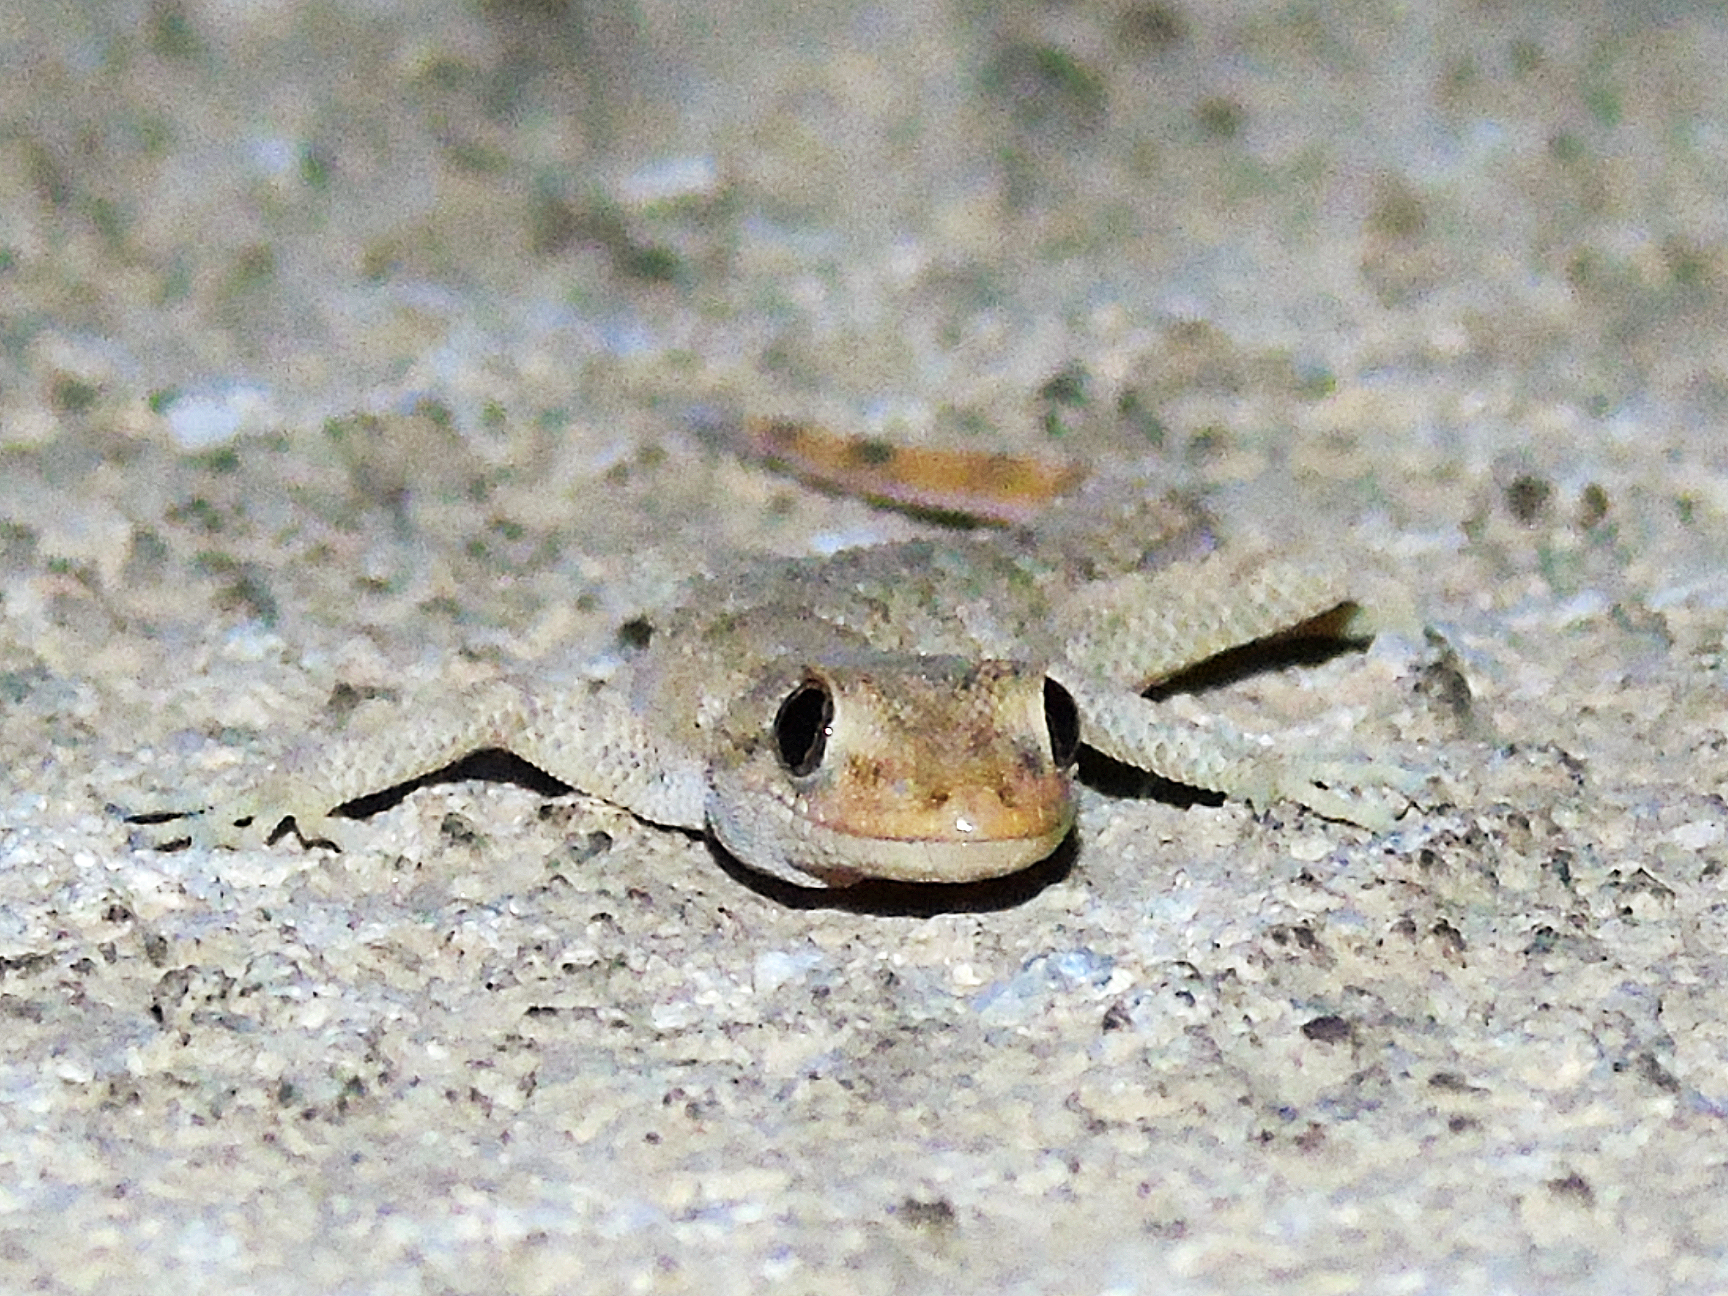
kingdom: Animalia
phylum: Chordata
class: Squamata
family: Gekkonidae
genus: Mediodactylus
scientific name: Mediodactylus kotschyi
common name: Kotschy's gecko
